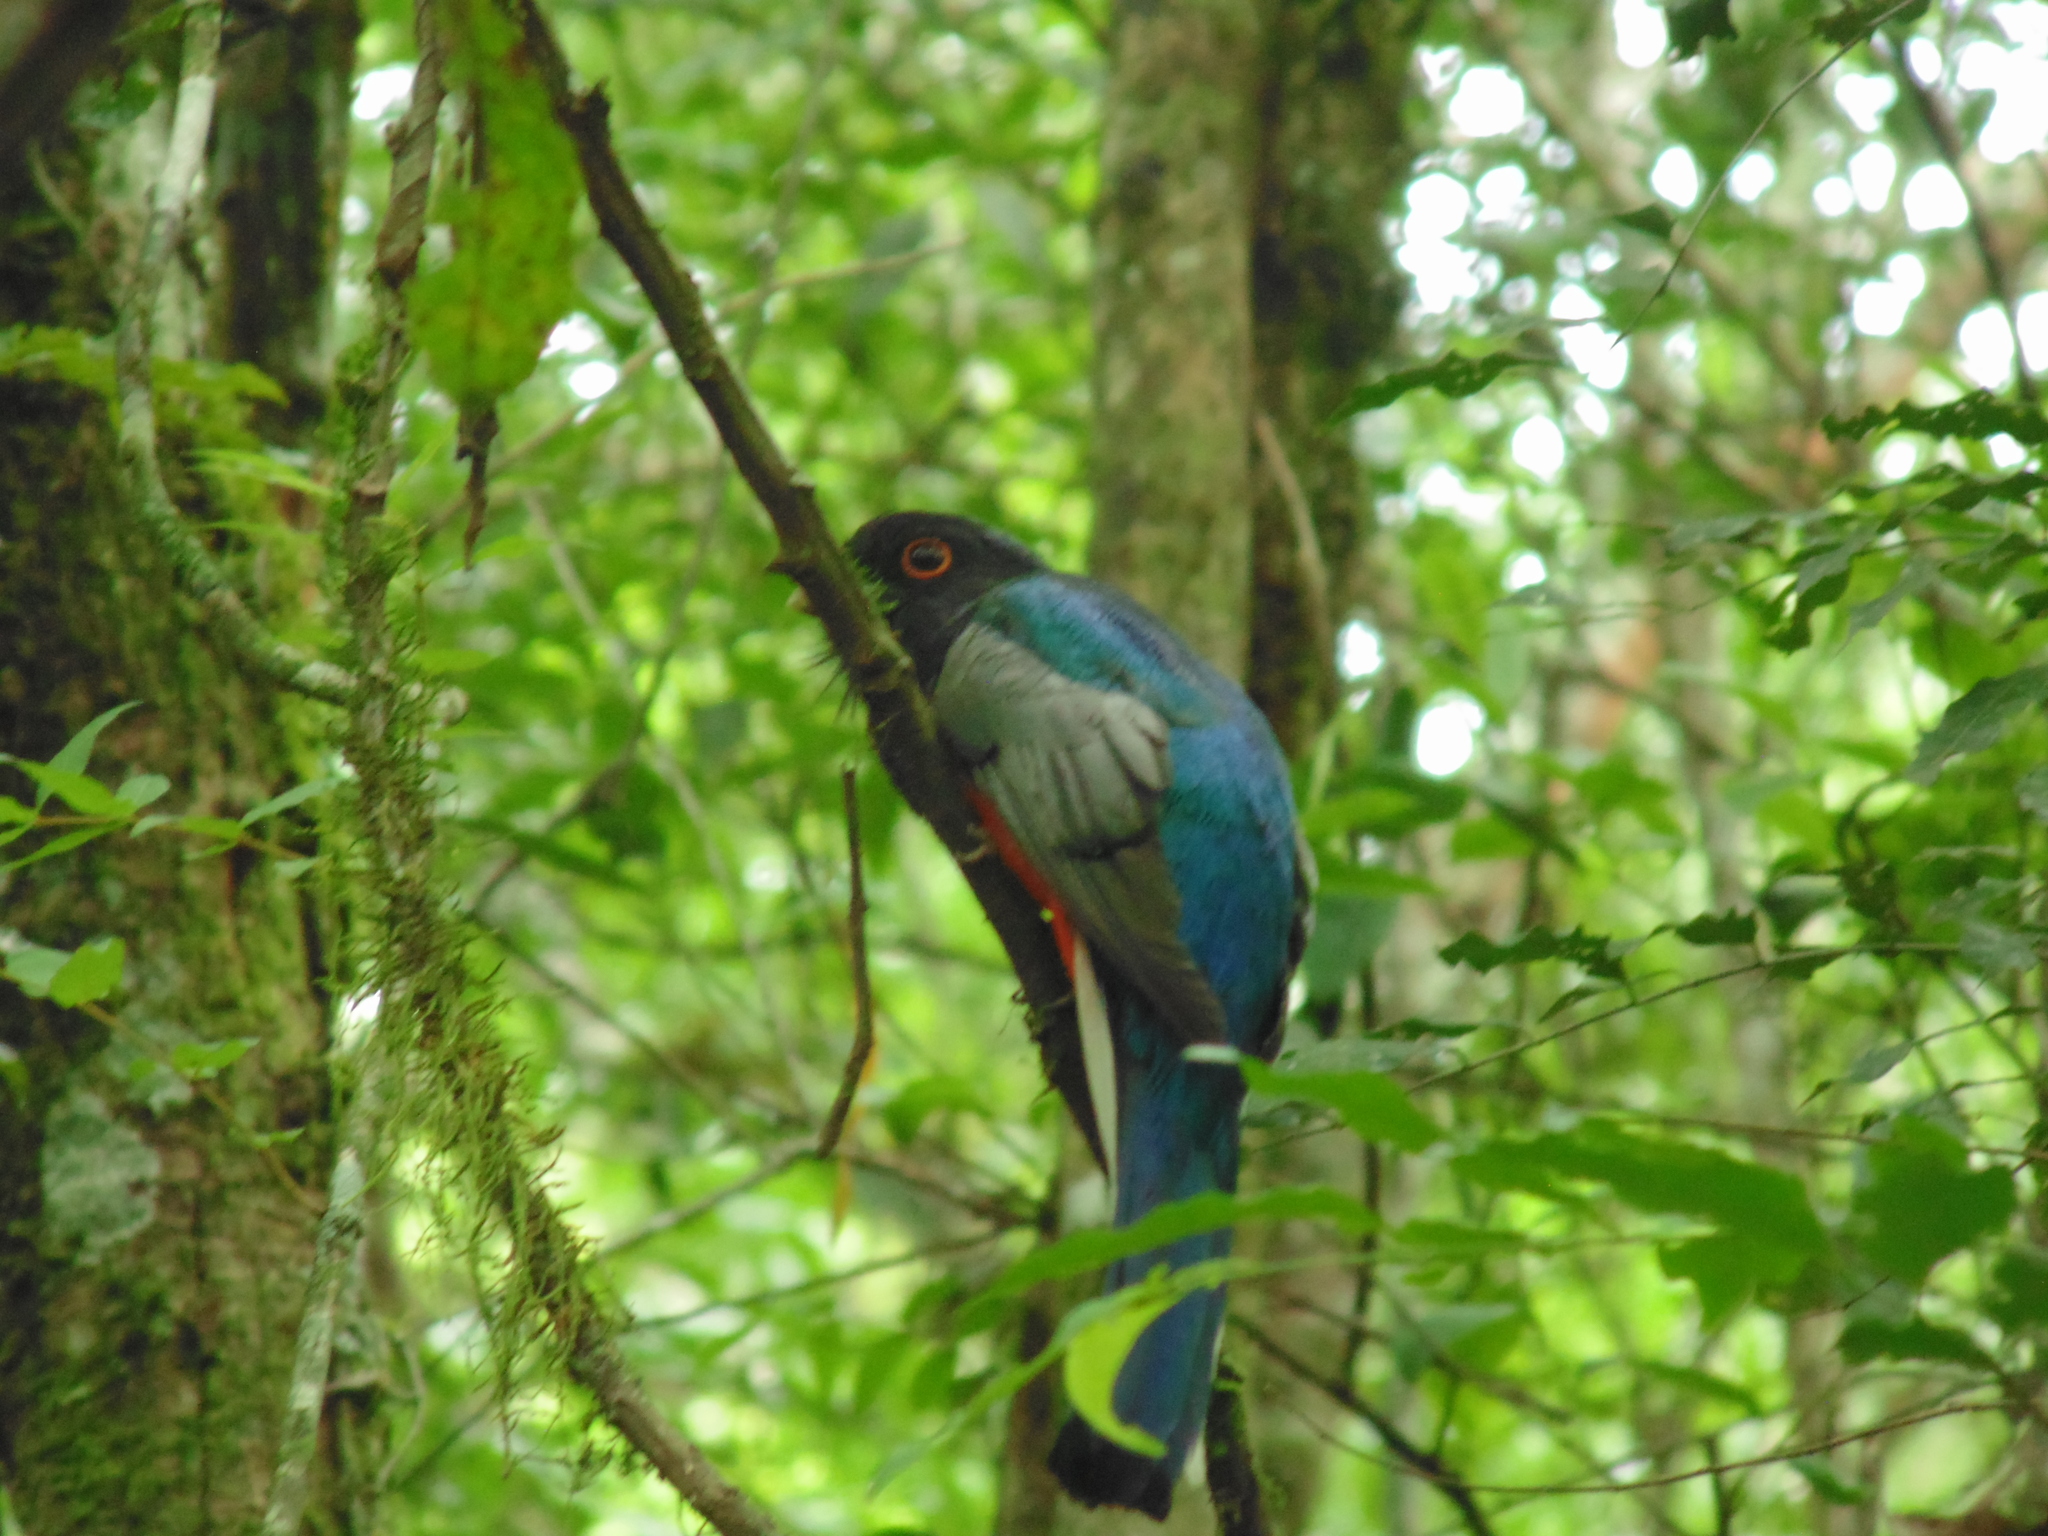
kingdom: Animalia
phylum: Chordata
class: Aves
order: Trogoniformes
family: Trogonidae
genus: Trogon
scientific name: Trogon surrucura
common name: Surucua trogon
